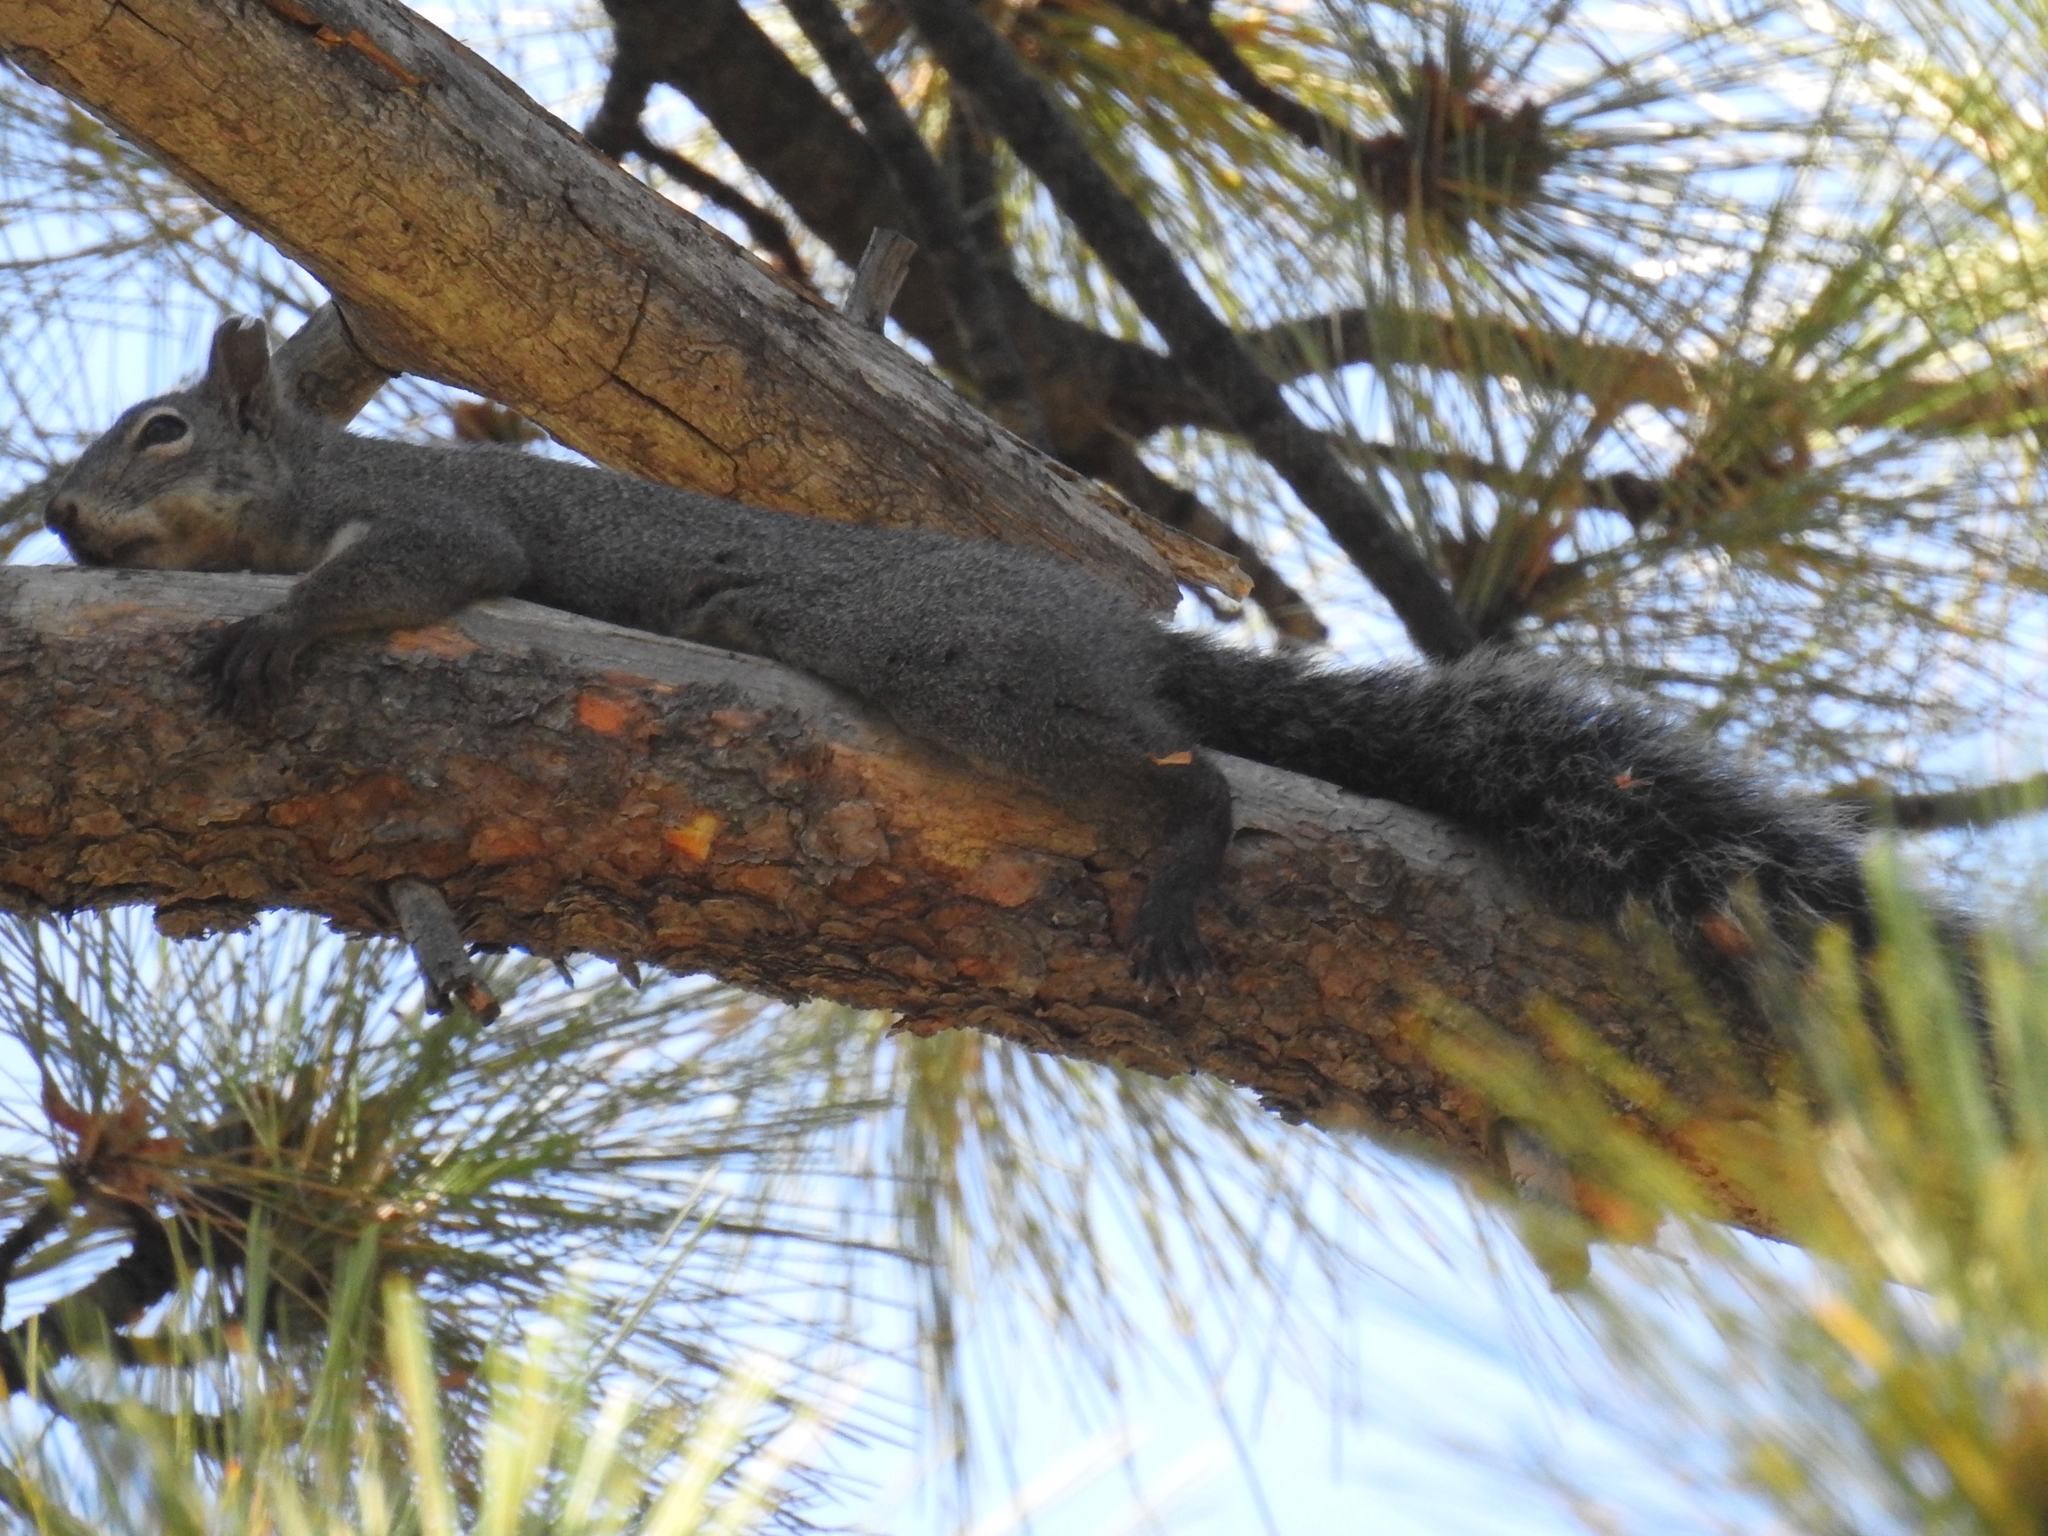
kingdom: Animalia
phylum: Chordata
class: Mammalia
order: Rodentia
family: Sciuridae
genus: Sciurus
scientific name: Sciurus griseus
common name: Western gray squirrel
